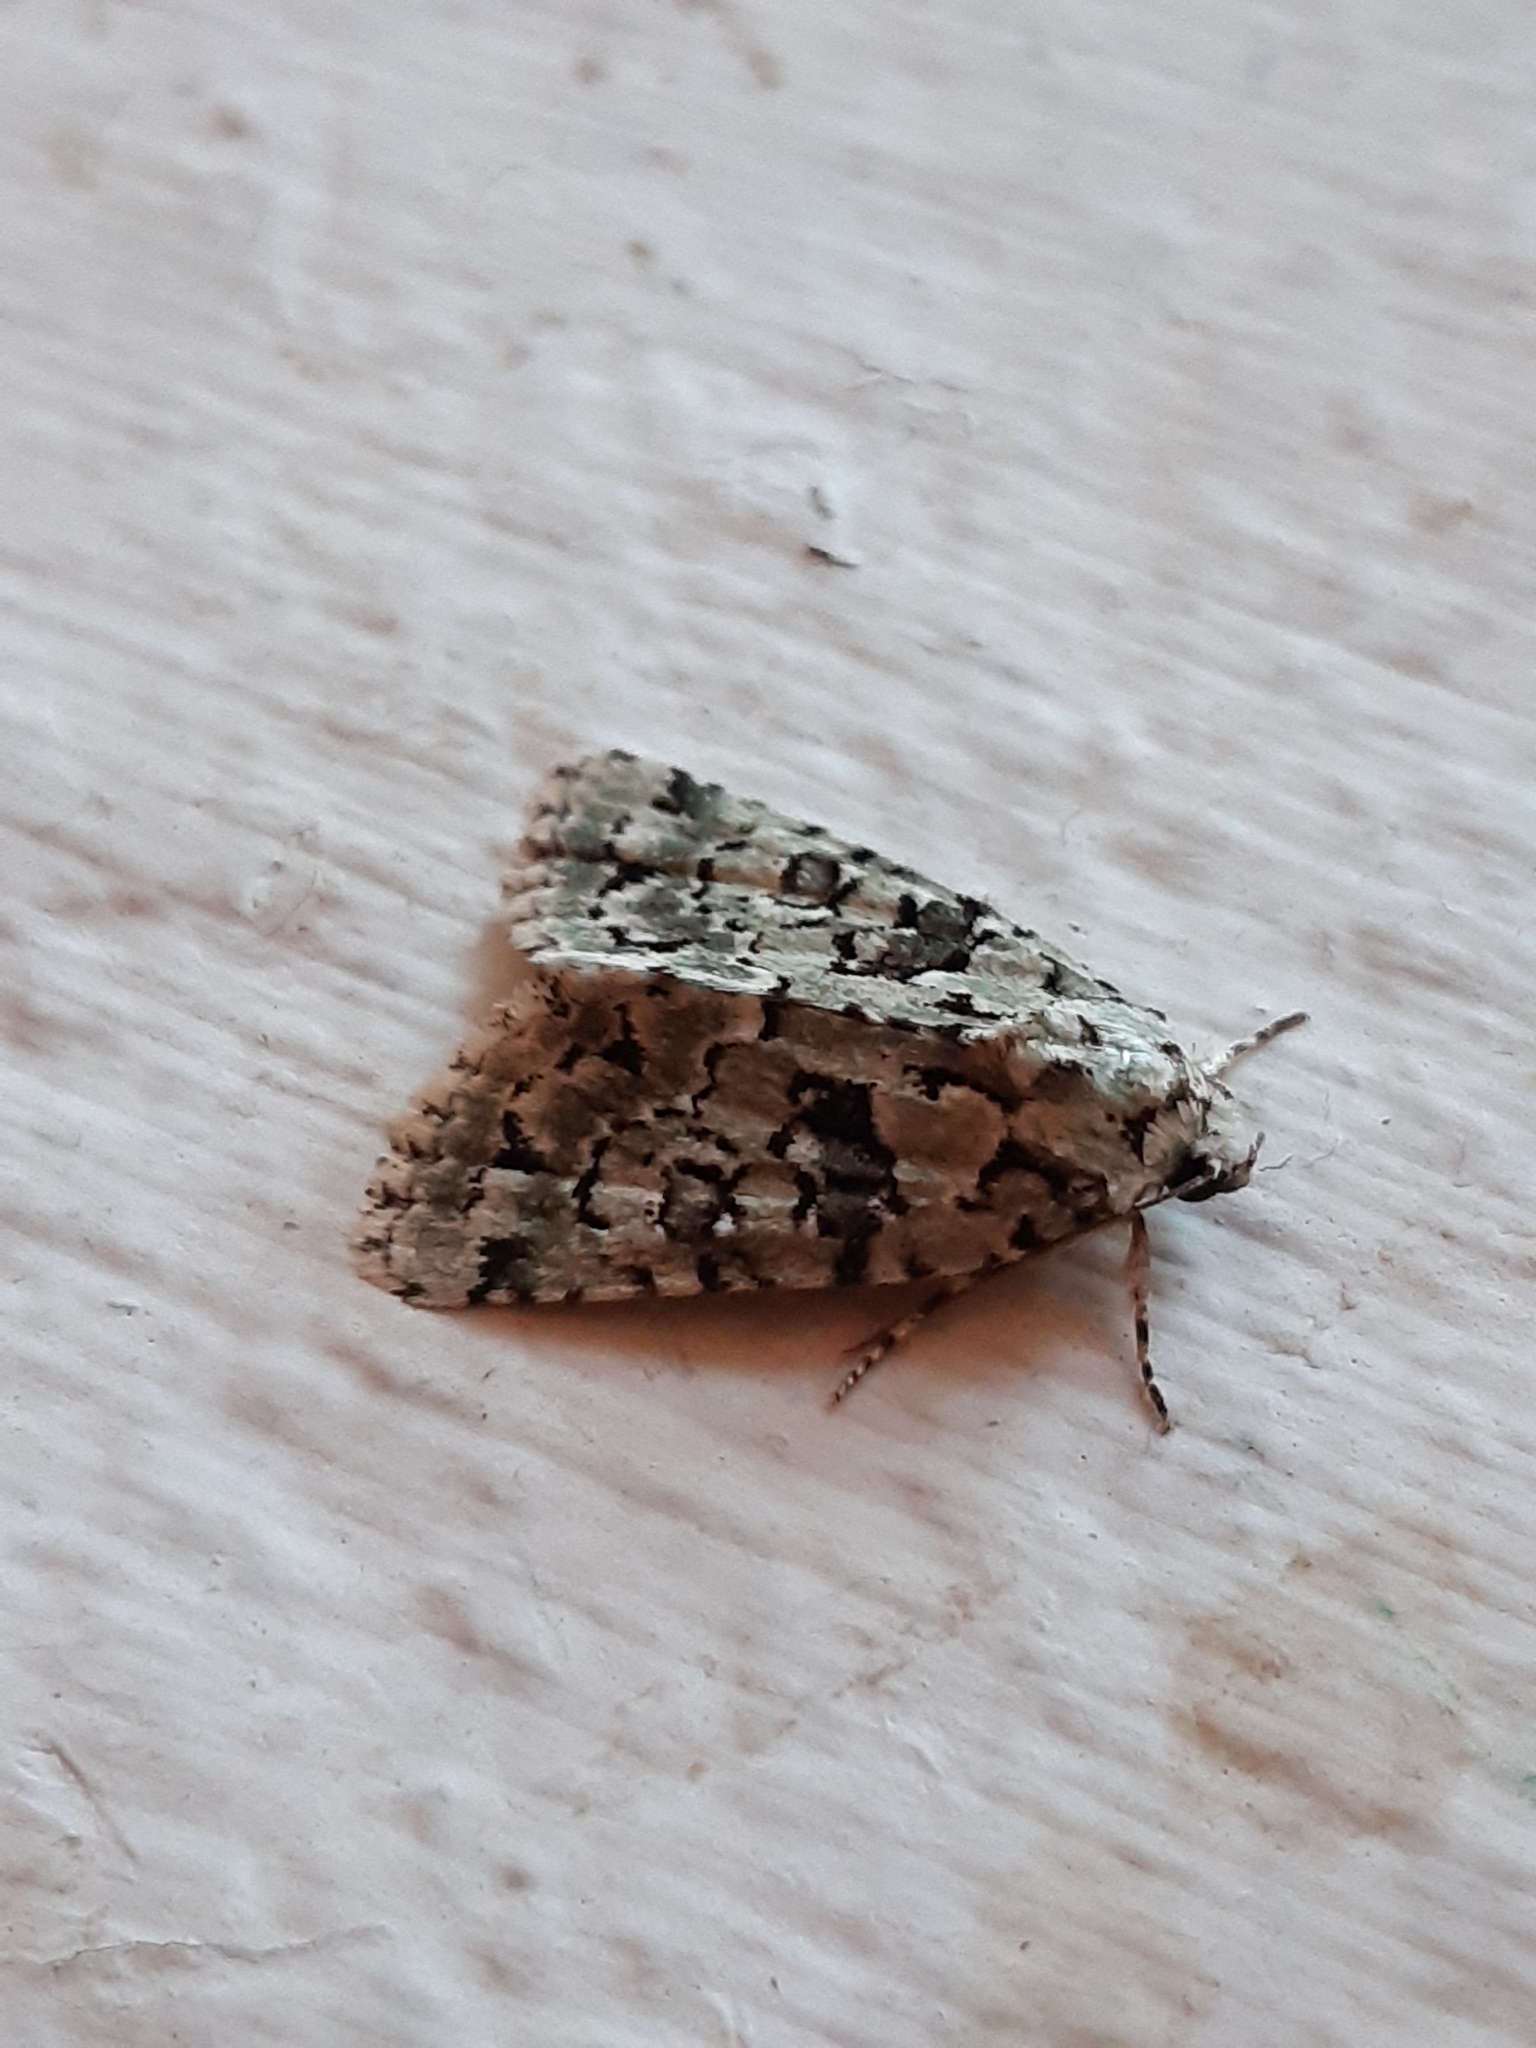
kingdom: Animalia
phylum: Arthropoda
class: Insecta
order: Lepidoptera
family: Noctuidae
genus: Nyctobrya
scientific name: Nyctobrya muralis
